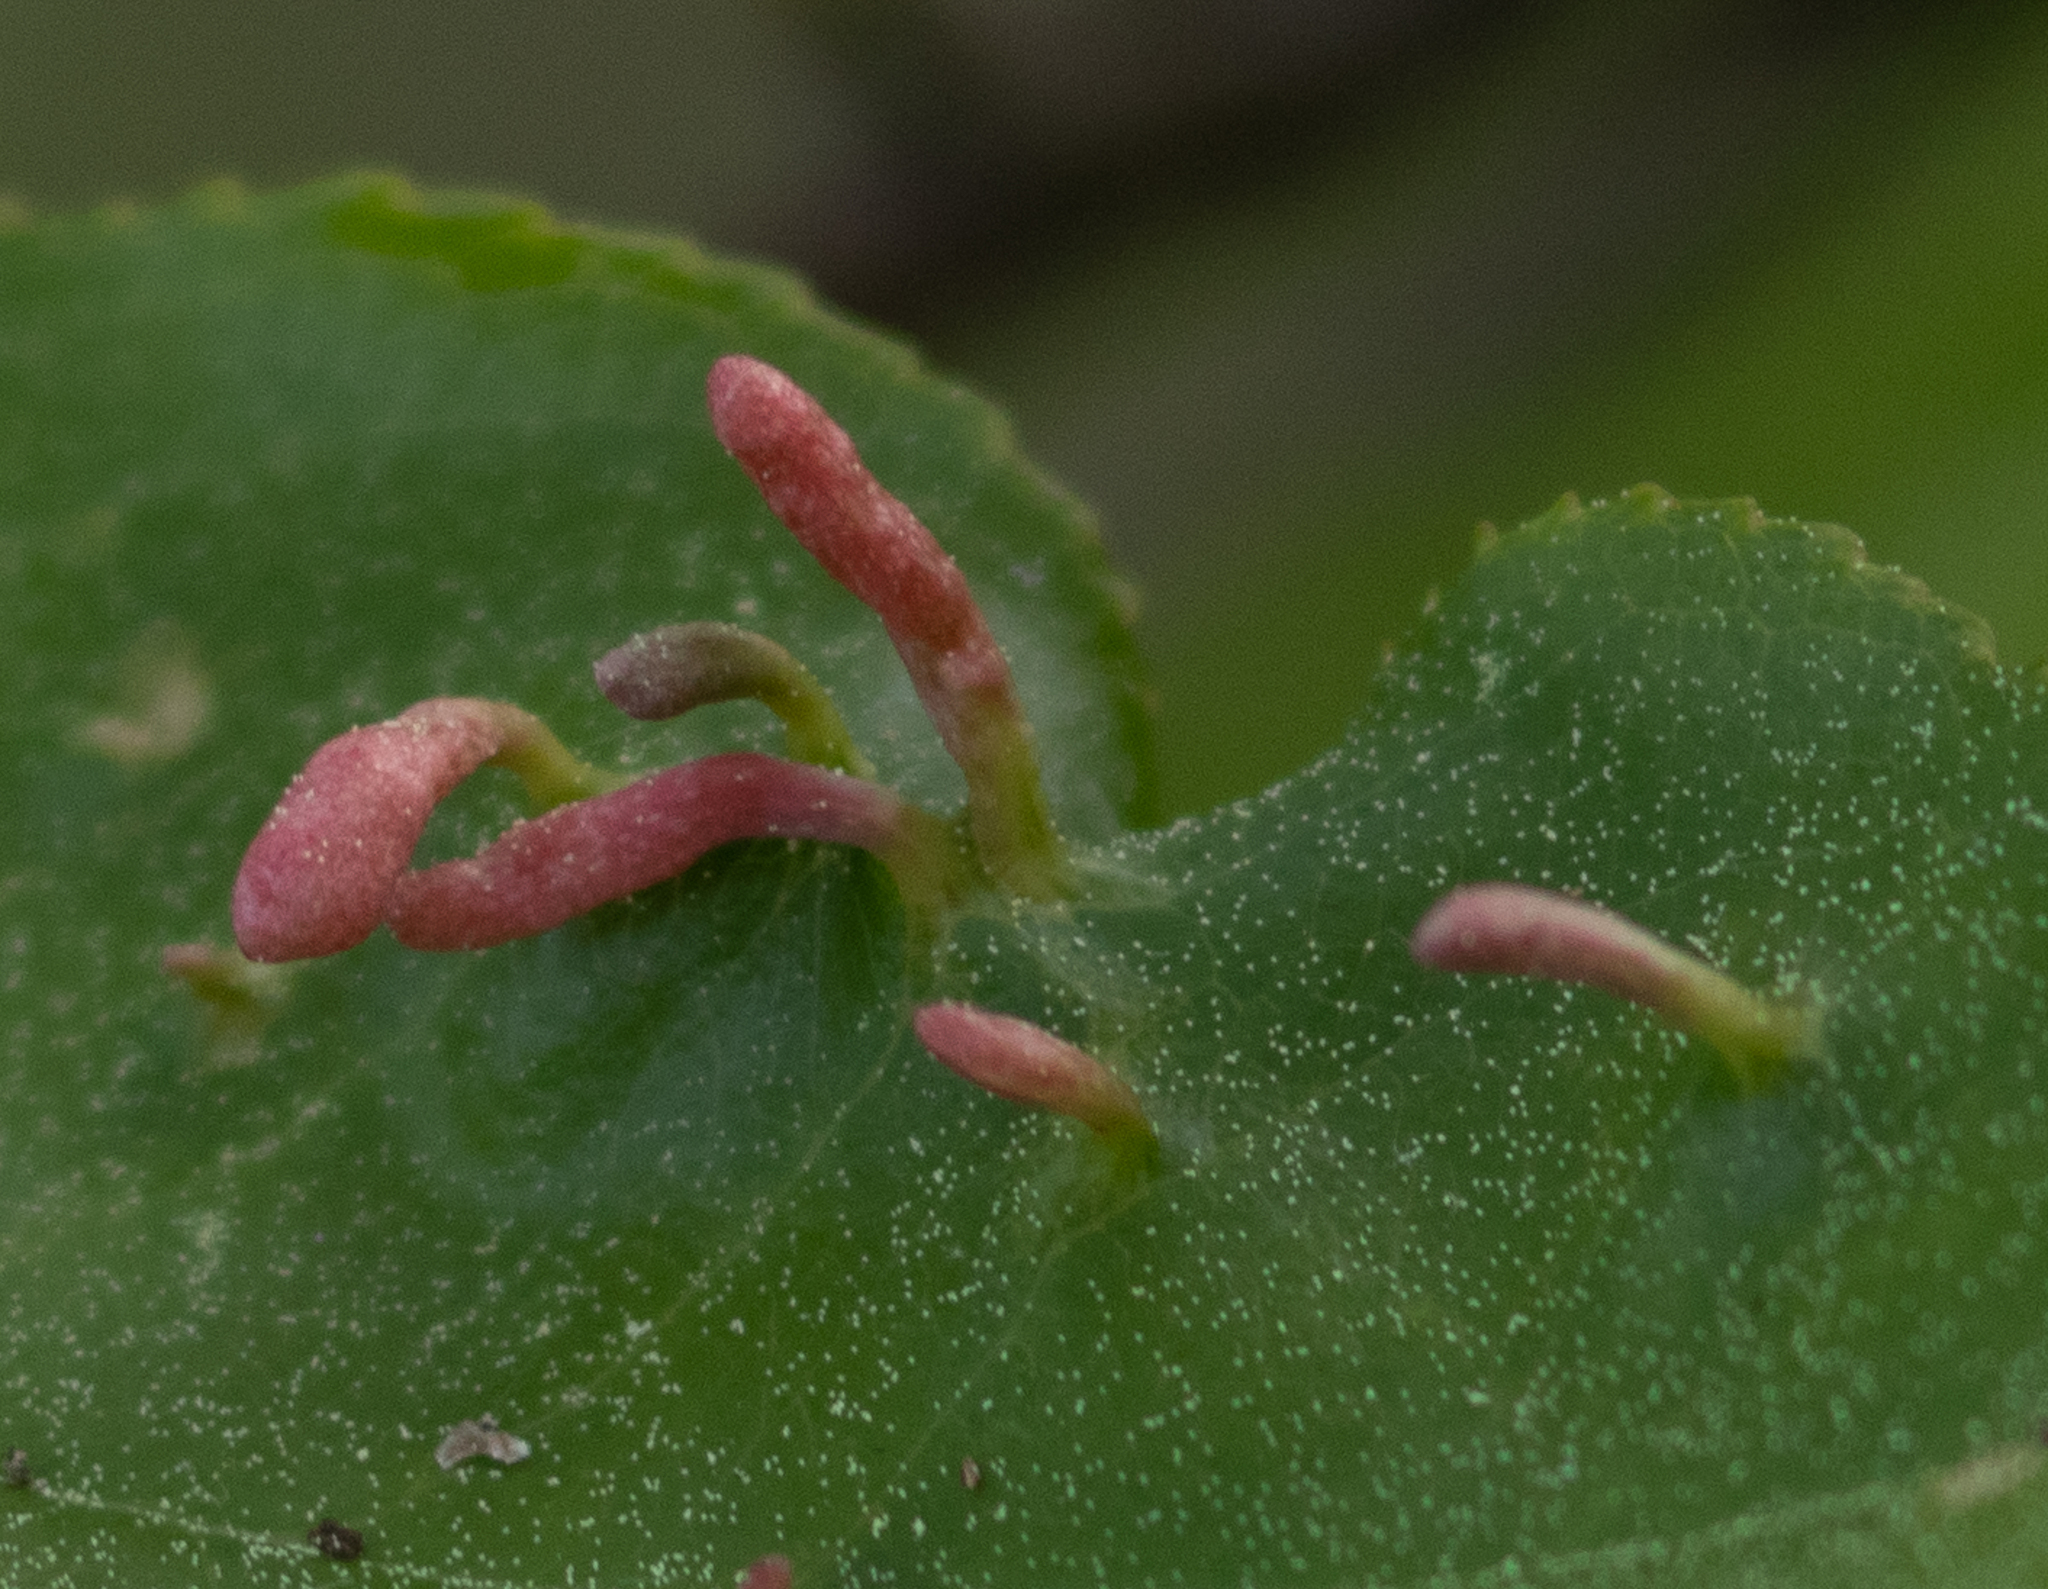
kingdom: Animalia
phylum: Arthropoda
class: Arachnida
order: Trombidiformes
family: Eriophyidae
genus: Eriophyes
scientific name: Eriophyes
